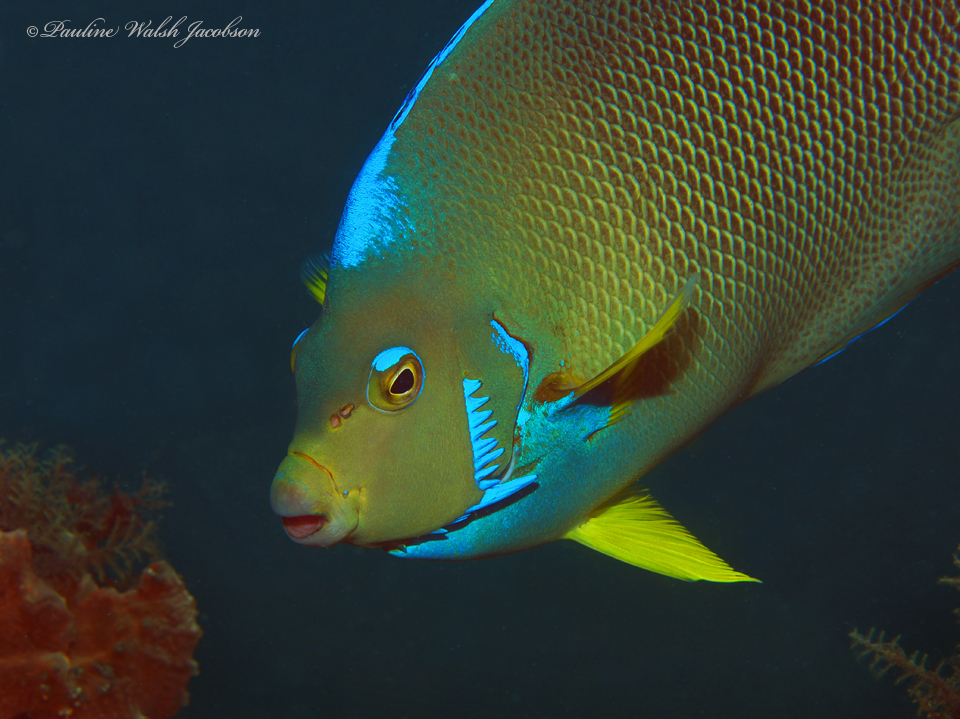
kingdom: Animalia
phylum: Chordata
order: Perciformes
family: Pomacanthidae
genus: Holacanthus
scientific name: Holacanthus ciliaris
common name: Queen angelfish
